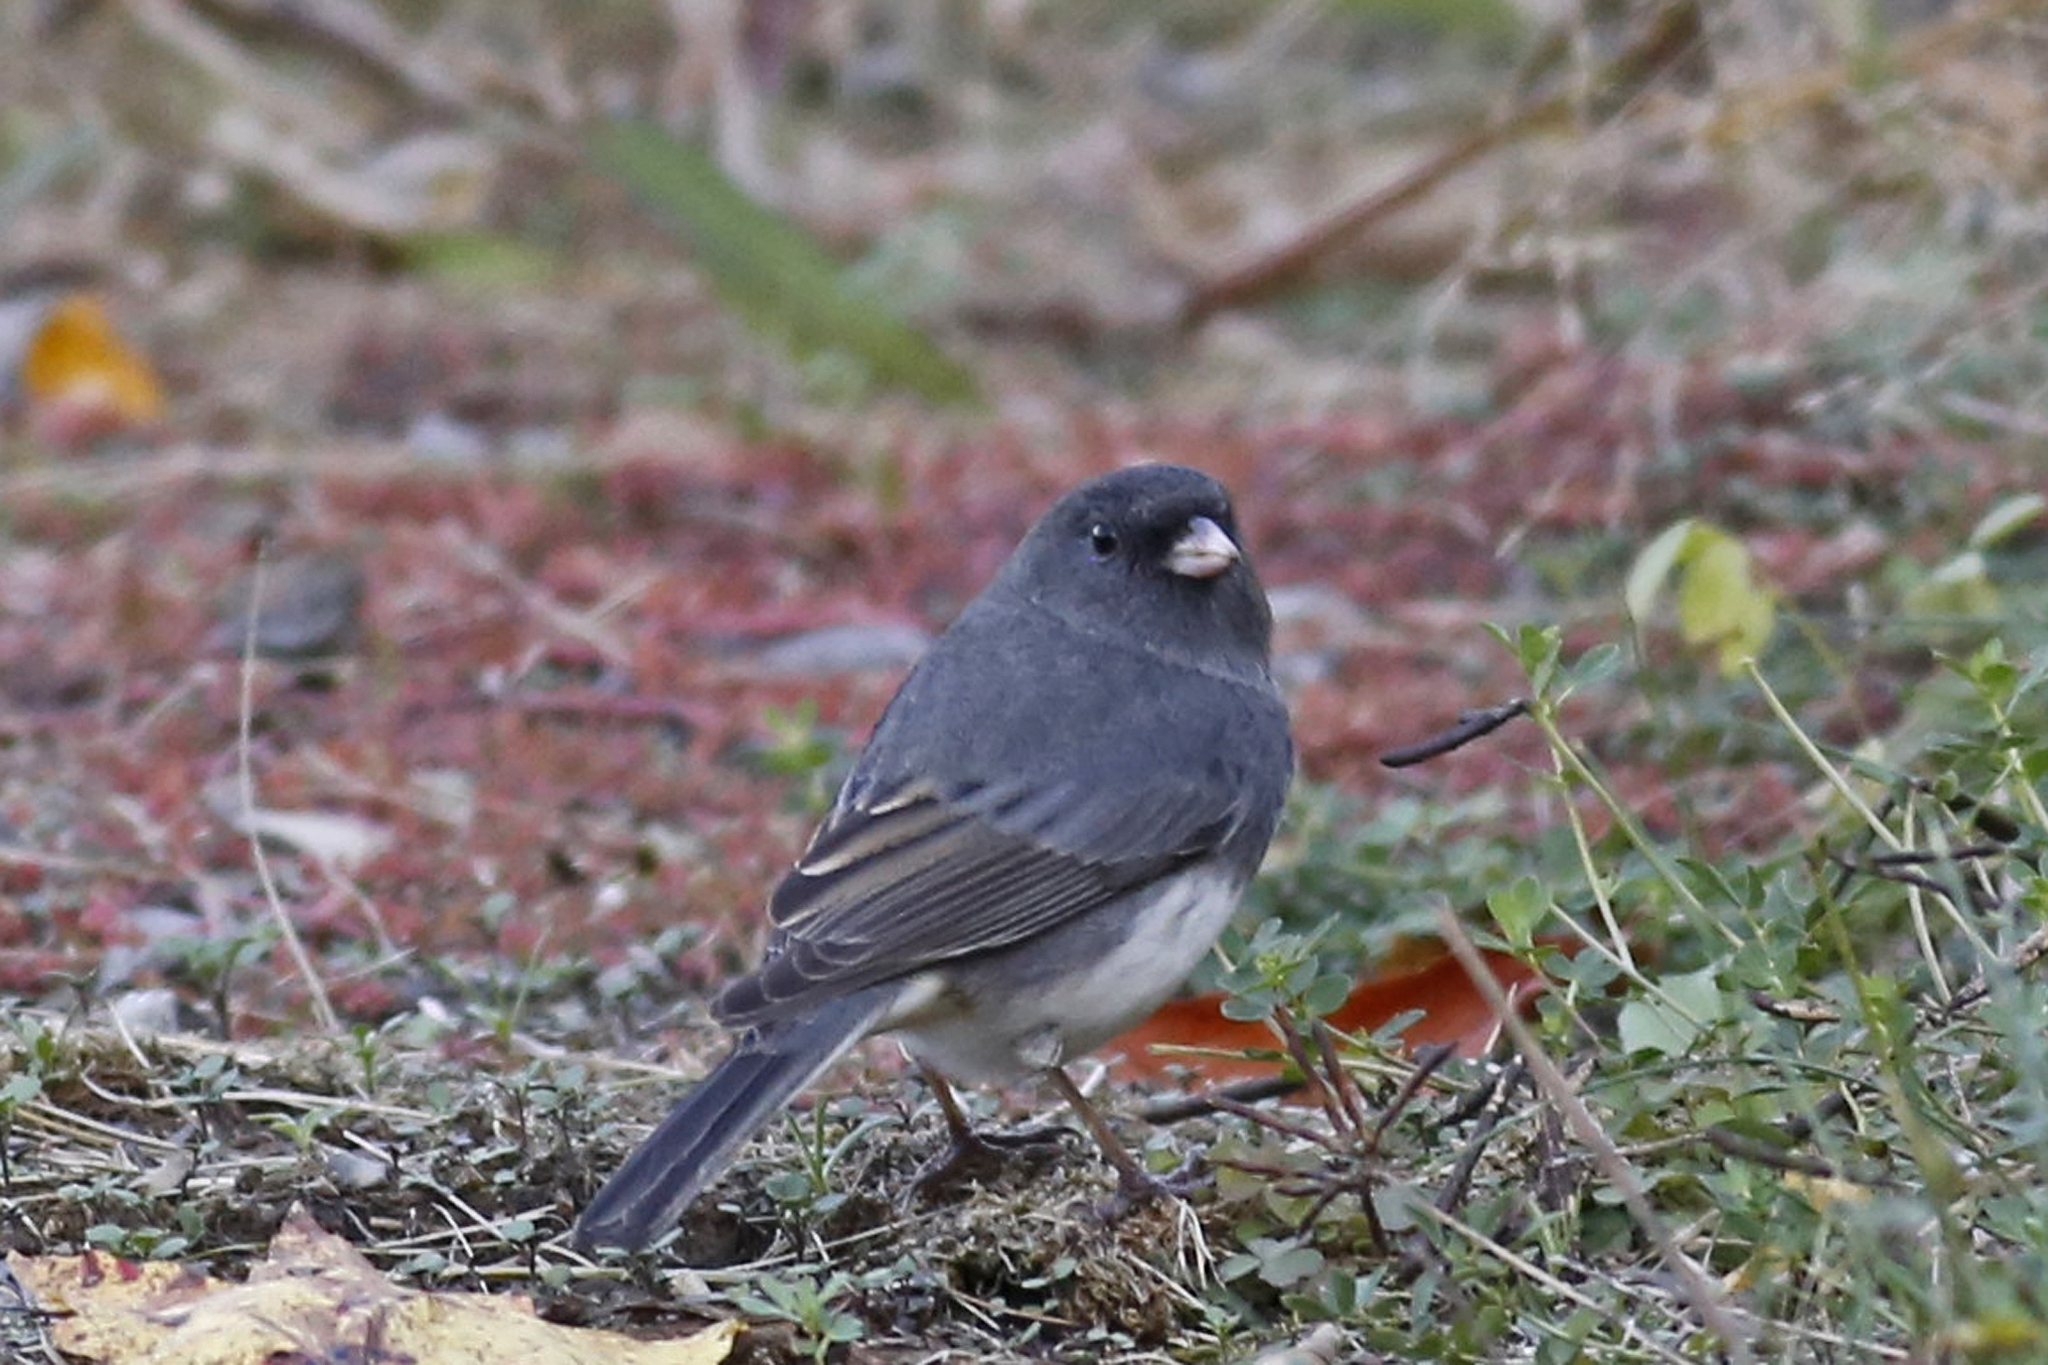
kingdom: Animalia
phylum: Chordata
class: Aves
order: Passeriformes
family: Passerellidae
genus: Junco
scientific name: Junco hyemalis
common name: Dark-eyed junco
